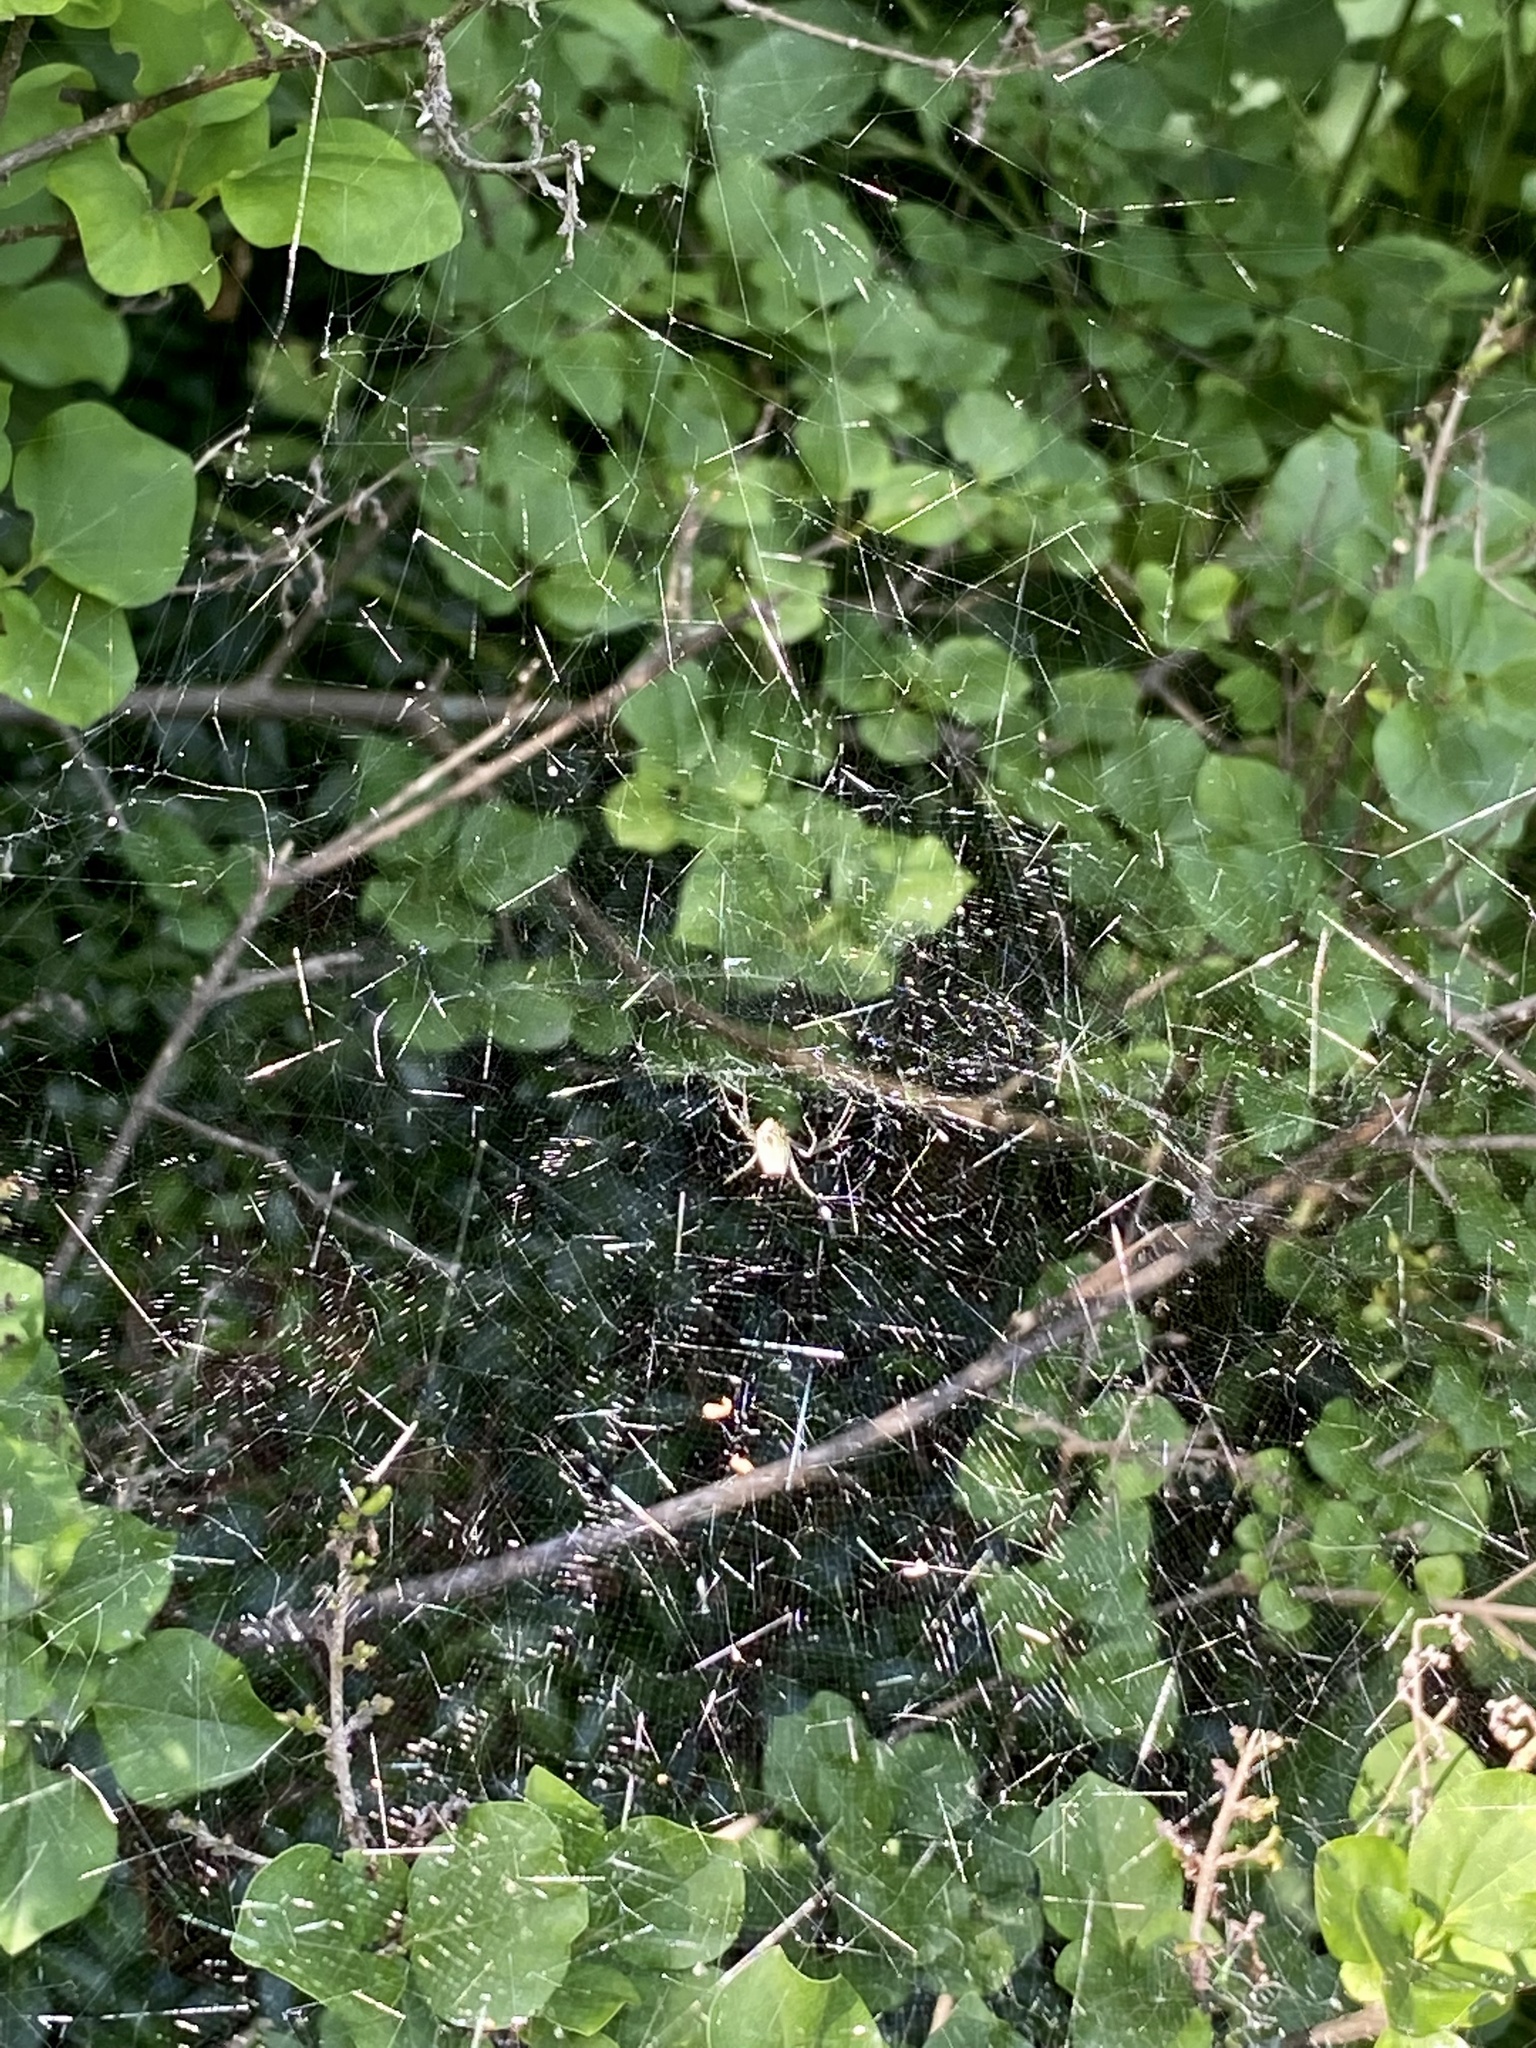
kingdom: Animalia
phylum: Arthropoda
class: Arachnida
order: Araneae
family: Araneidae
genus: Mecynogea
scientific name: Mecynogea lemniscata
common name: Orb weavers
